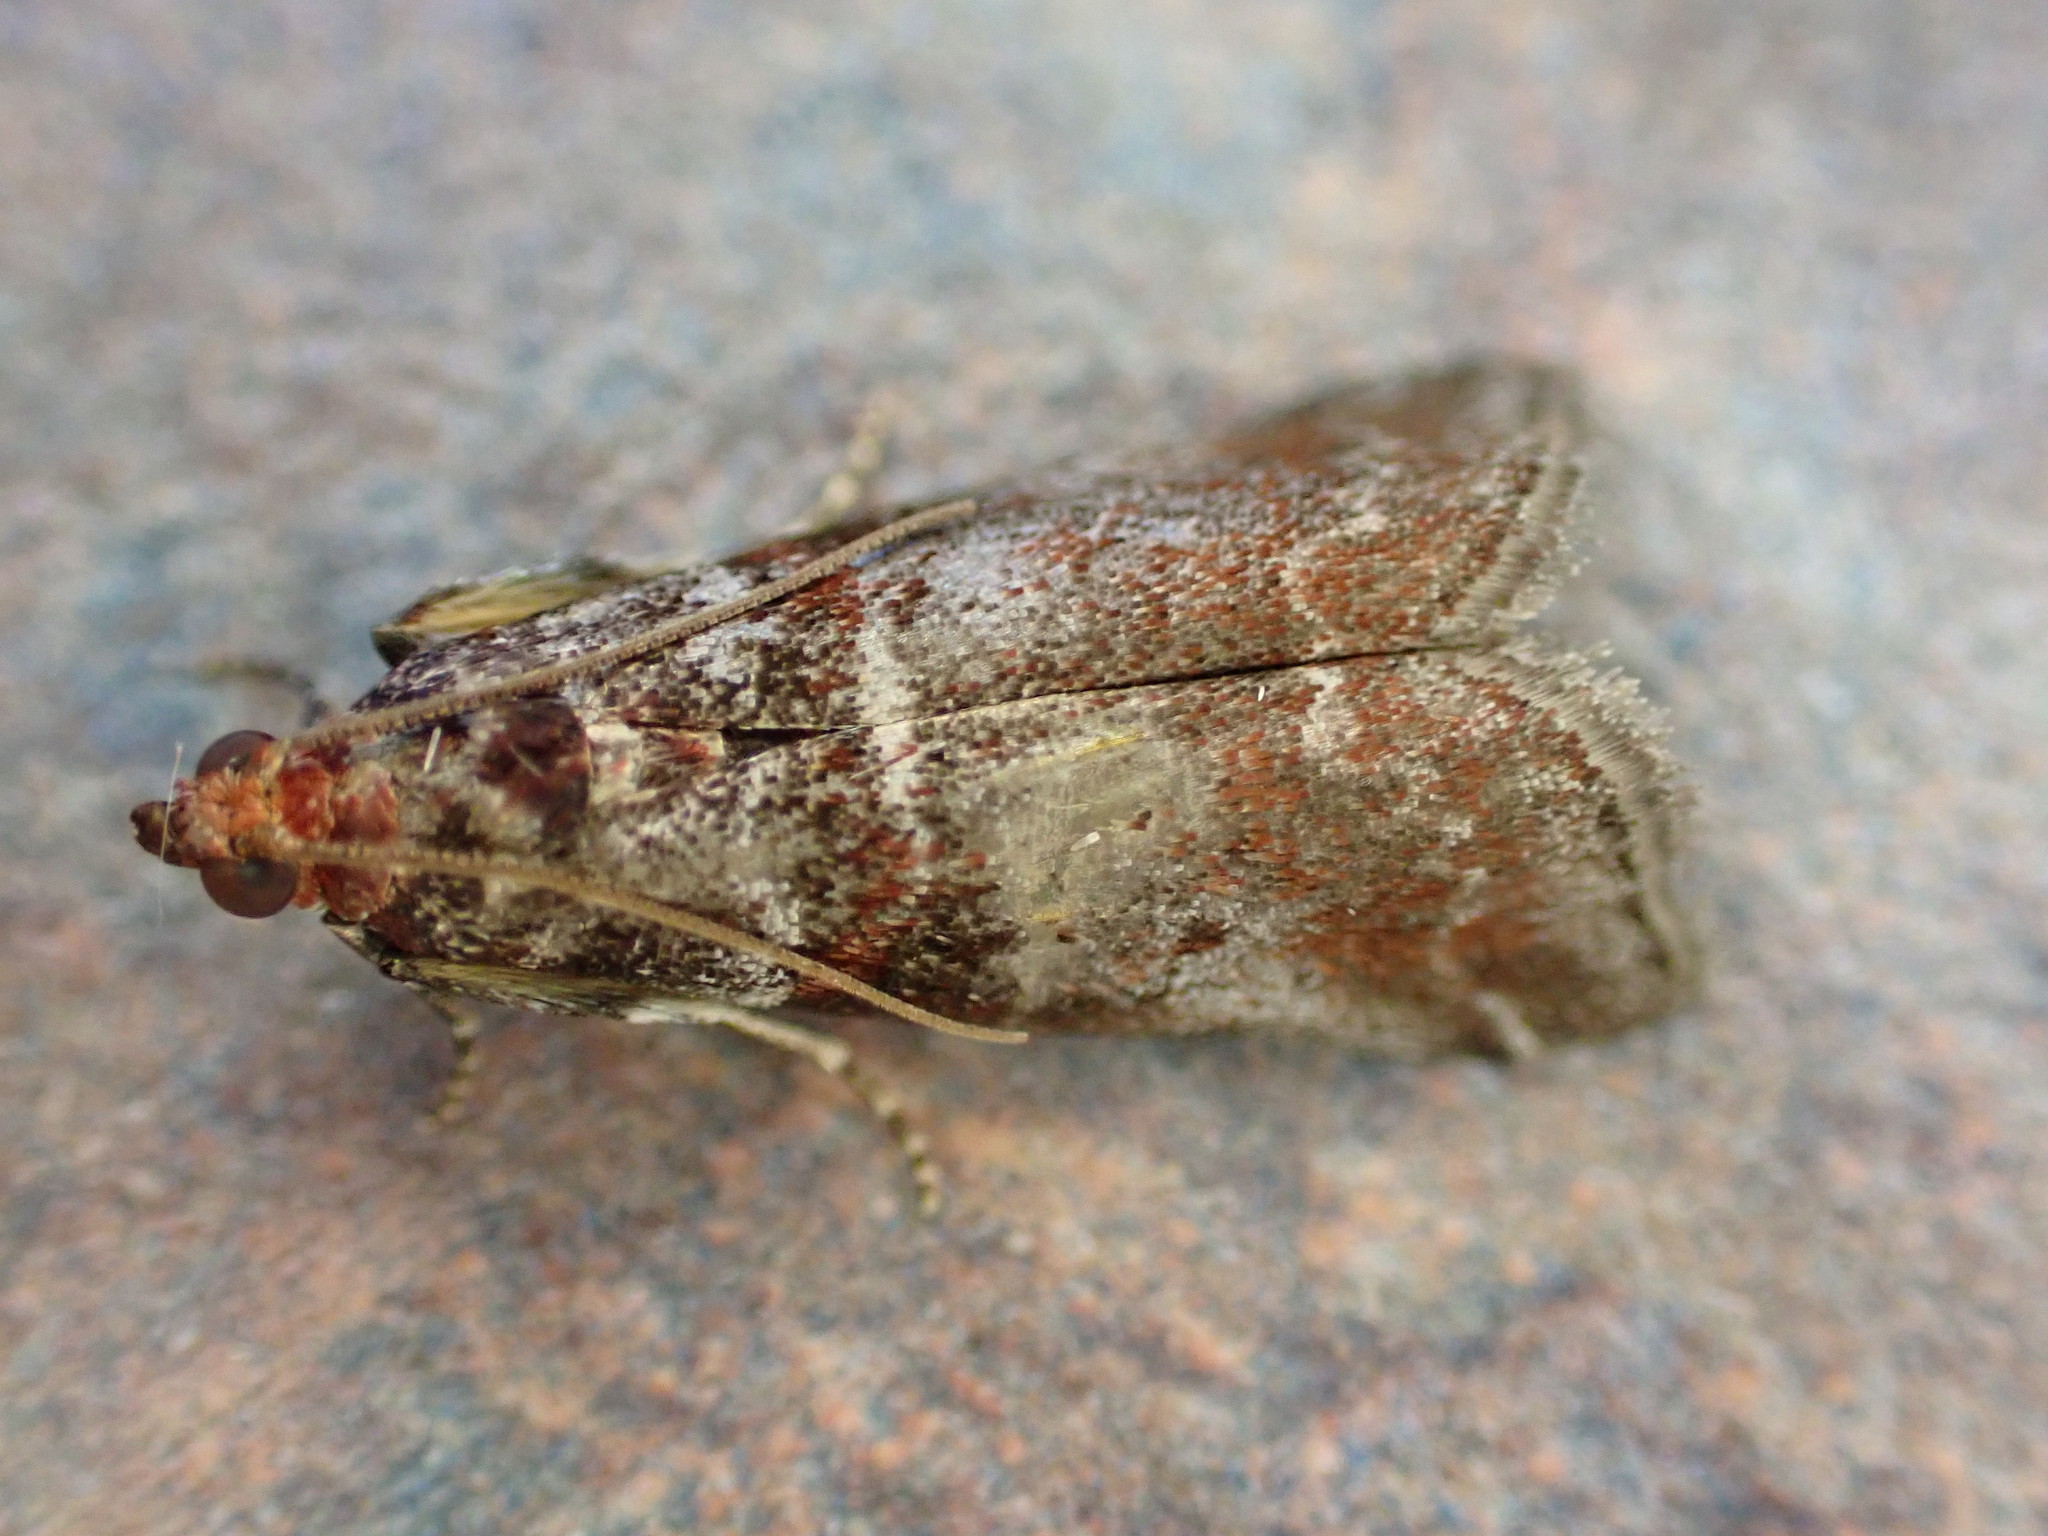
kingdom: Animalia
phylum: Arthropoda
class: Insecta
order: Lepidoptera
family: Pyralidae
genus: Acrobasis
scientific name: Acrobasis advenella
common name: Grey knot-horn
